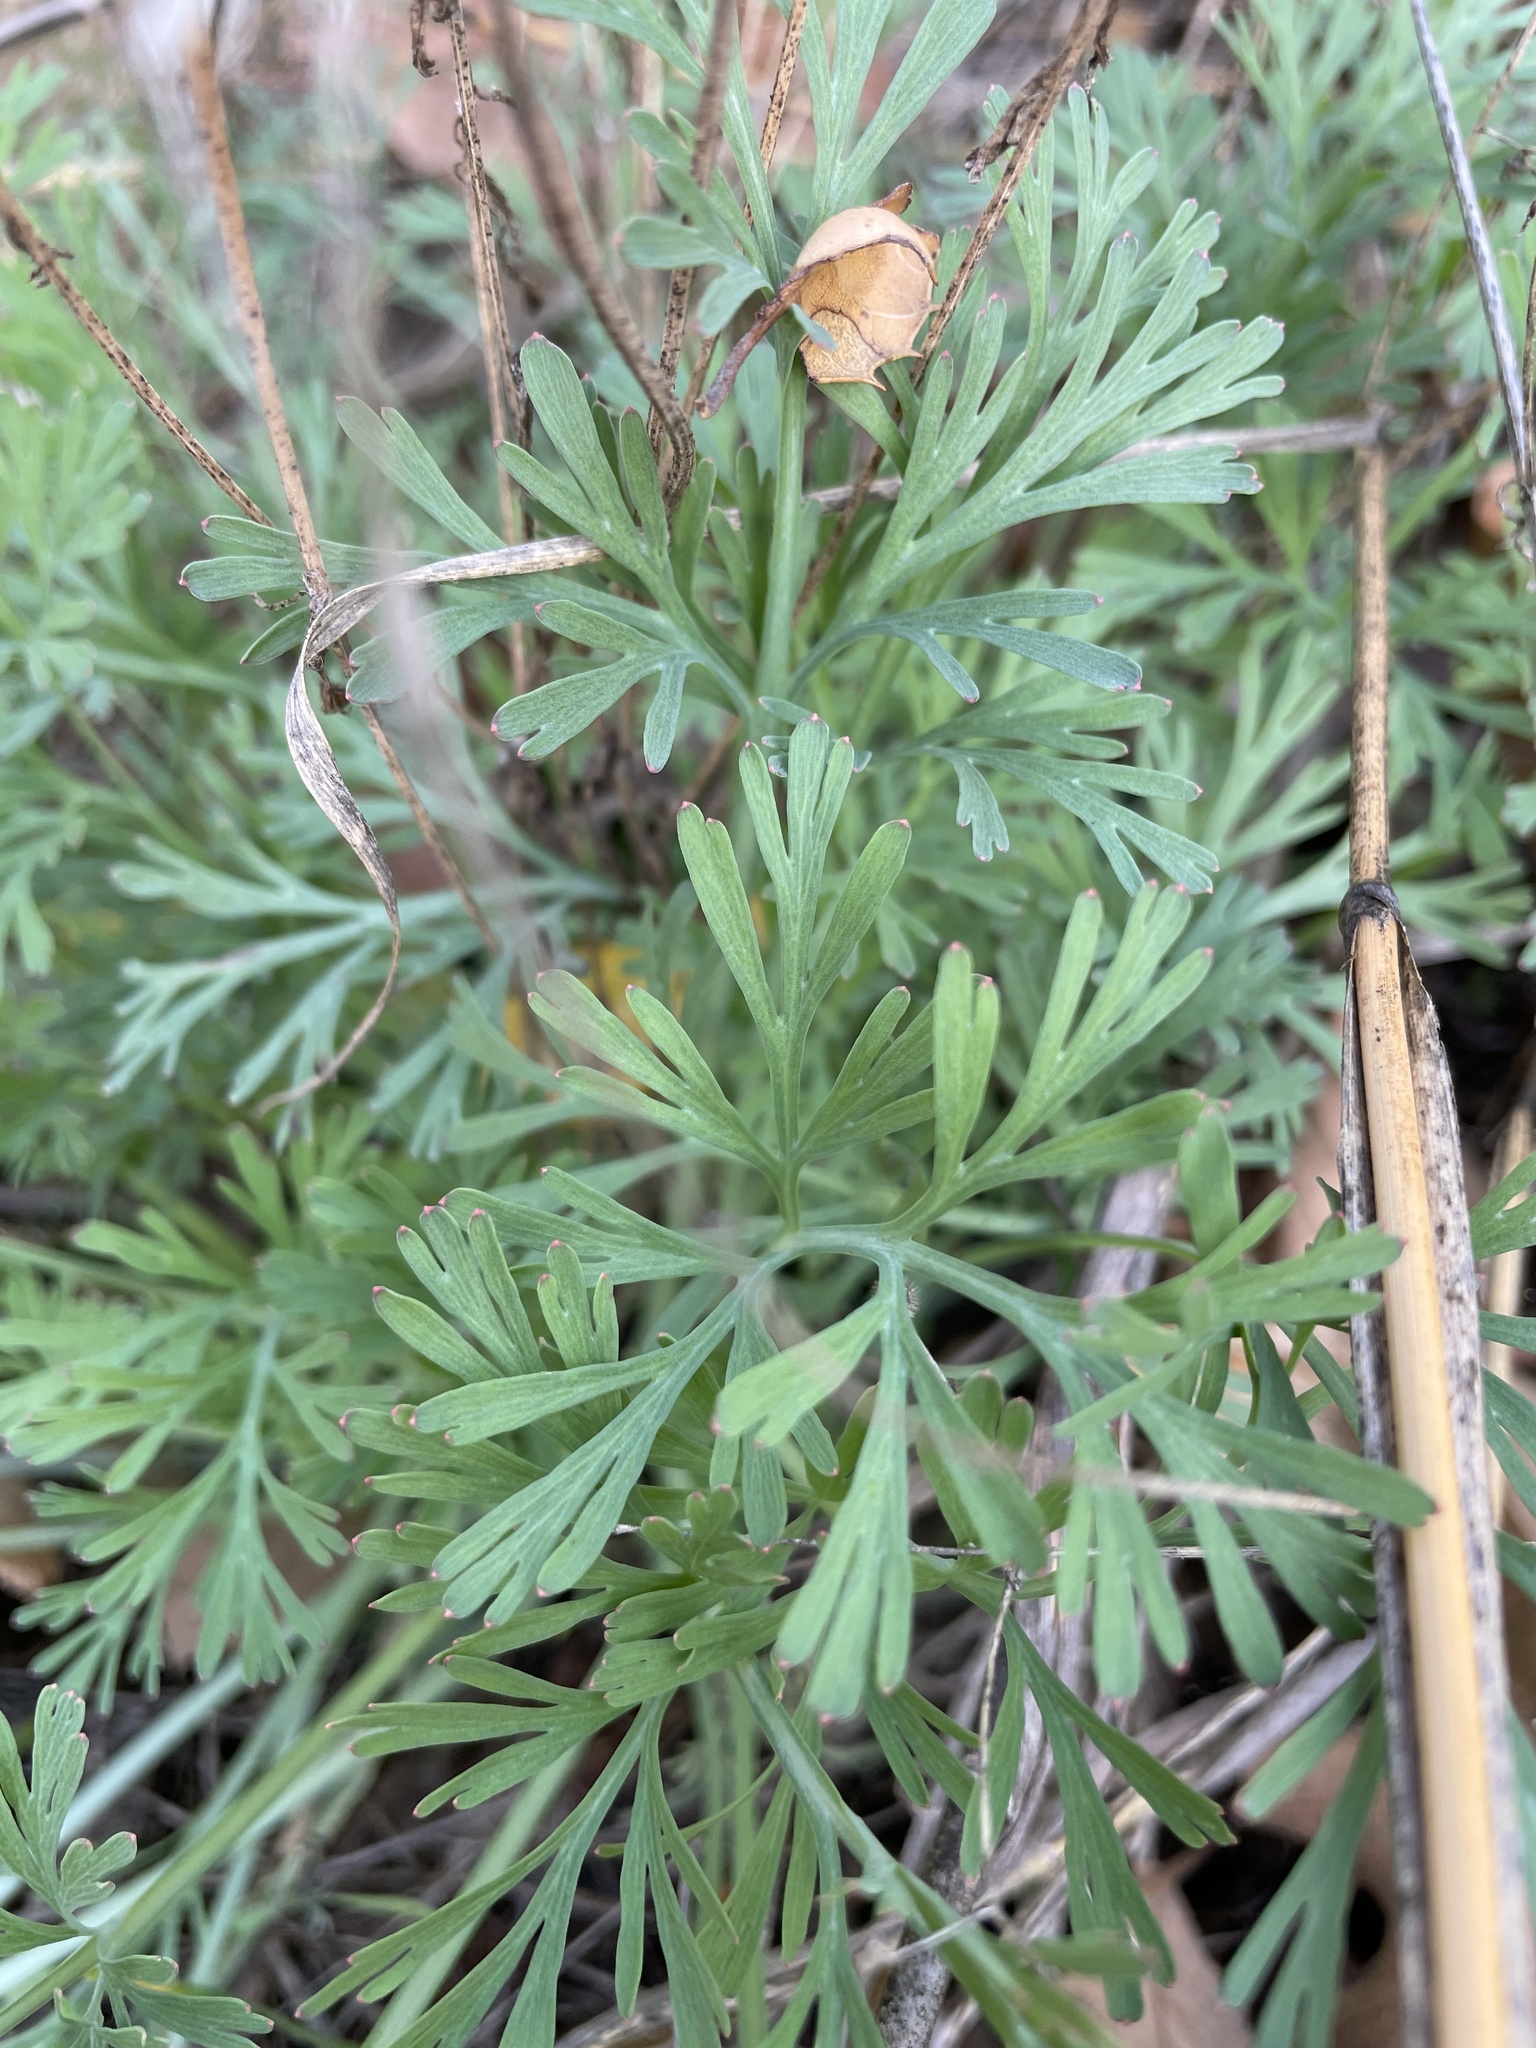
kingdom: Plantae
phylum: Tracheophyta
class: Magnoliopsida
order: Ranunculales
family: Papaveraceae
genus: Eschscholzia
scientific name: Eschscholzia californica
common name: California poppy
